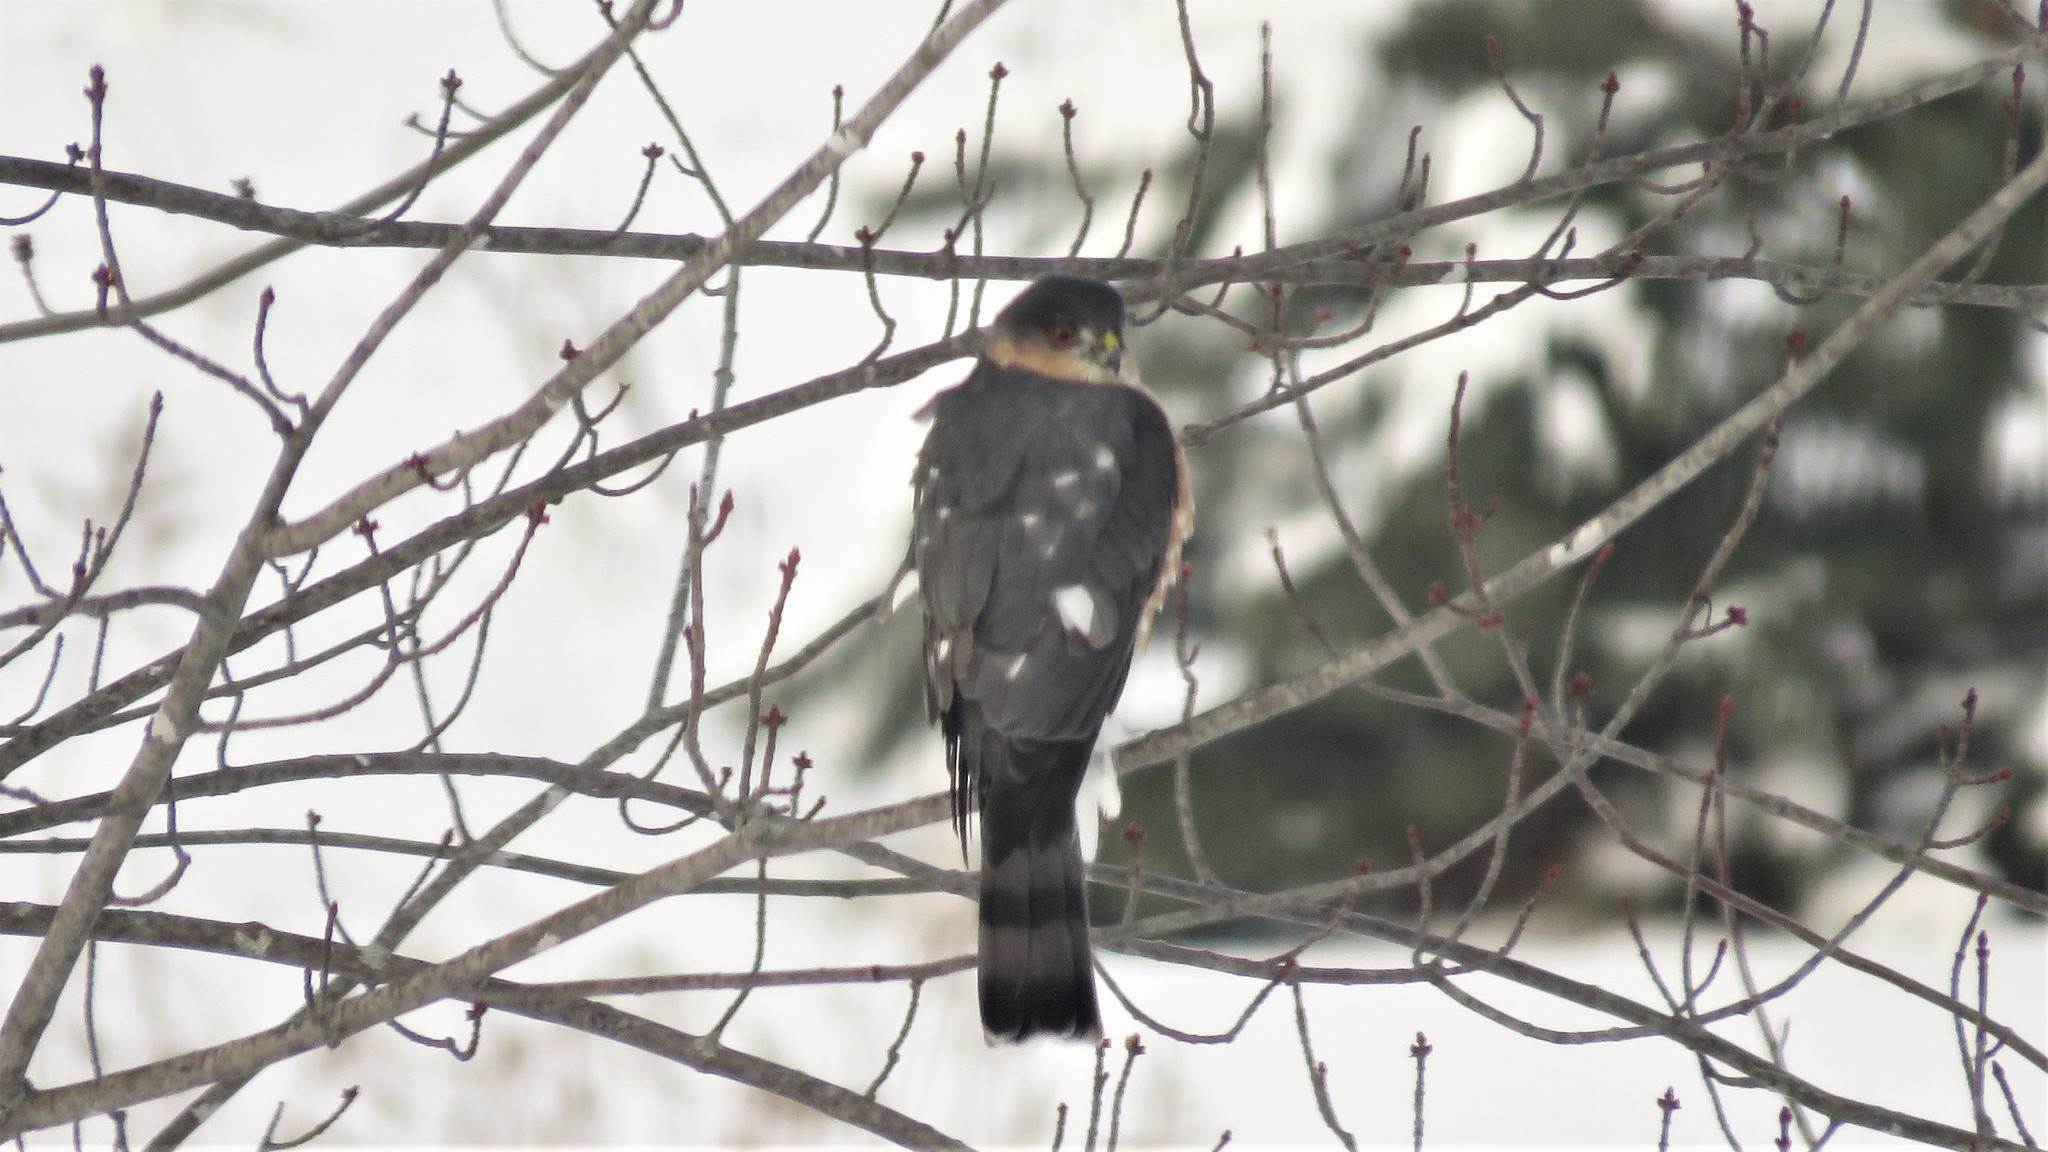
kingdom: Animalia
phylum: Chordata
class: Aves
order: Accipitriformes
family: Accipitridae
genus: Accipiter
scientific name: Accipiter striatus
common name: Sharp-shinned hawk
